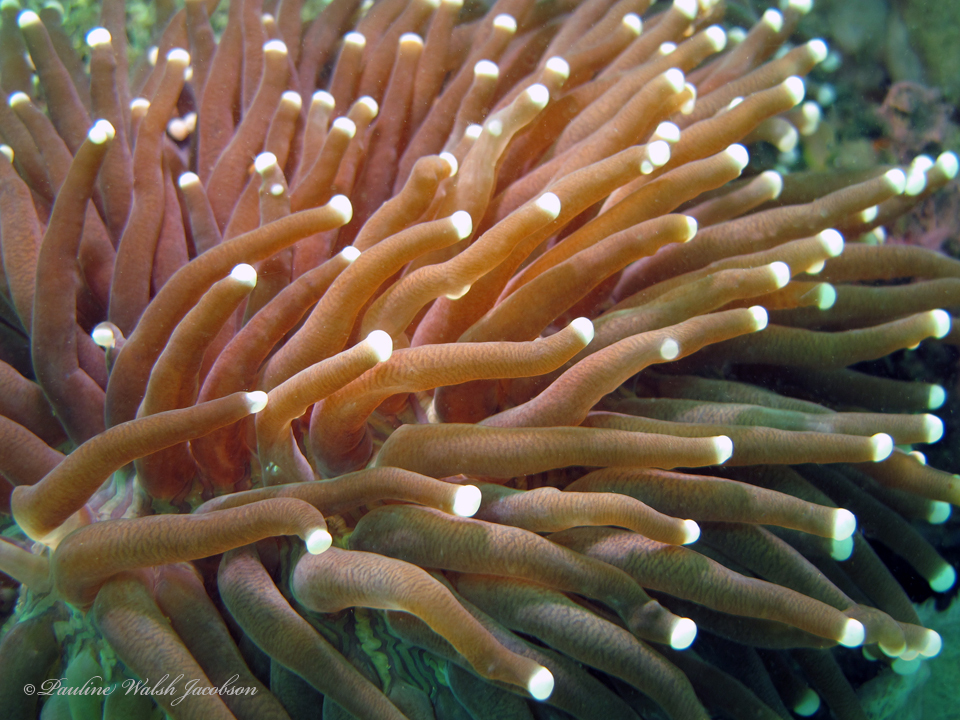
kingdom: Animalia
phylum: Cnidaria
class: Anthozoa
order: Scleractinia
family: Fungiidae
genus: Heliofungia
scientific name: Heliofungia actiniformis
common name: Plate coral
